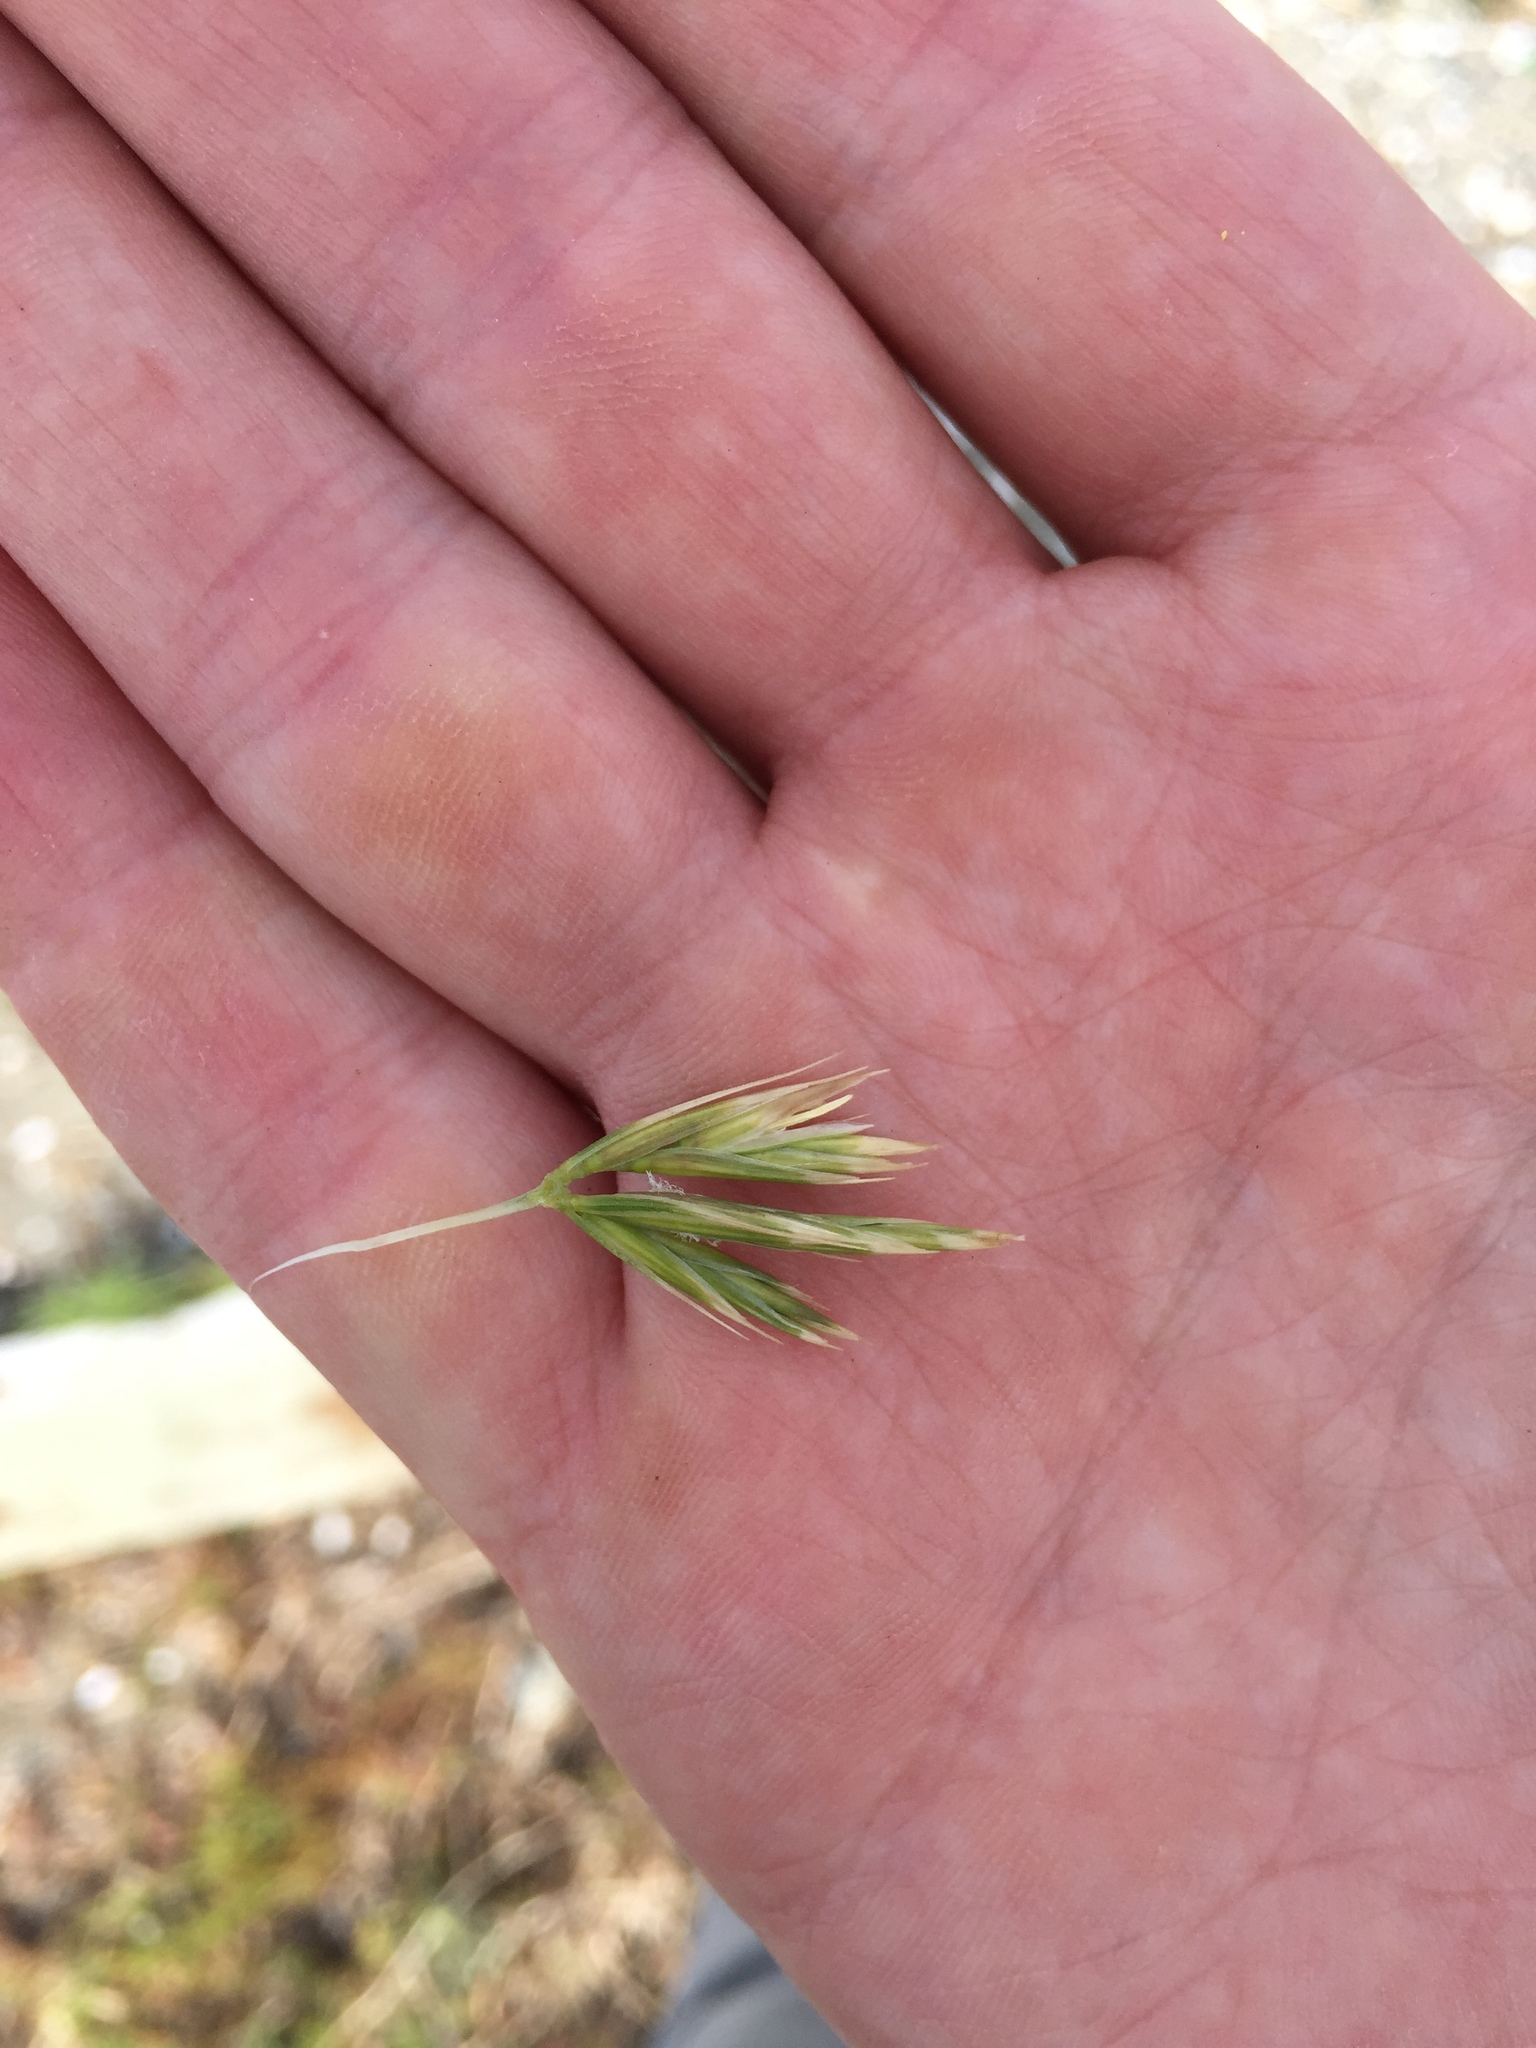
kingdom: Plantae
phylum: Tracheophyta
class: Liliopsida
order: Poales
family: Poaceae
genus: Leymus
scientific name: Leymus triticoides
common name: Beardless wild rye
